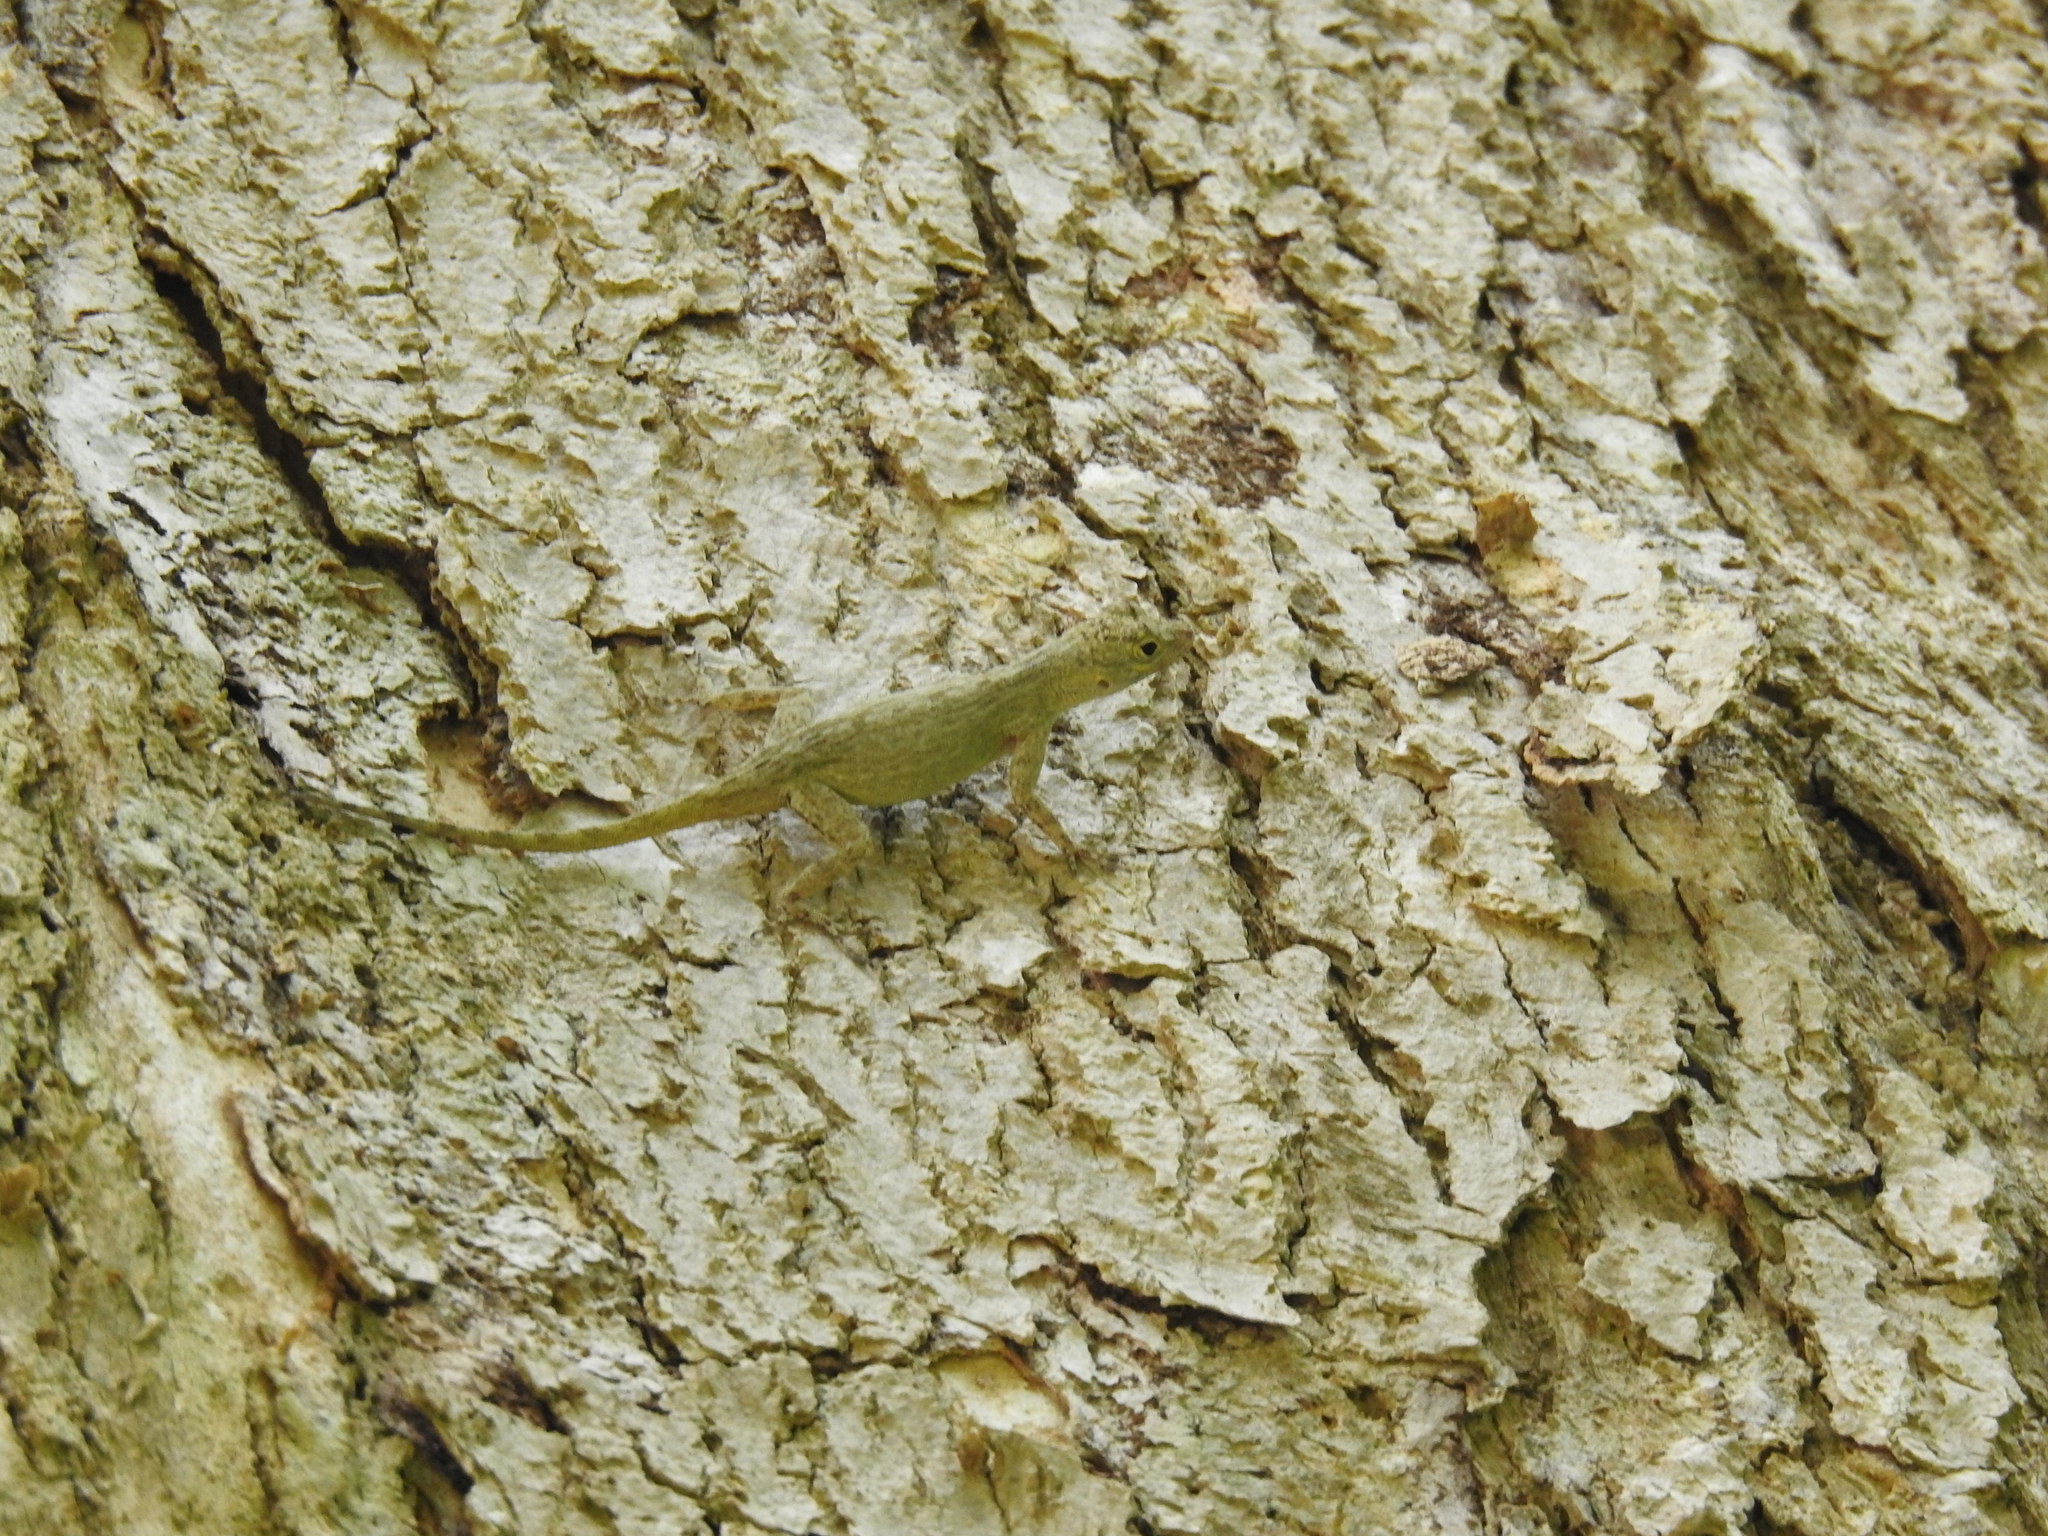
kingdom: Animalia
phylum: Chordata
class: Squamata
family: Dactyloidae
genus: Anolis
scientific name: Anolis distichus
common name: Bark anole
